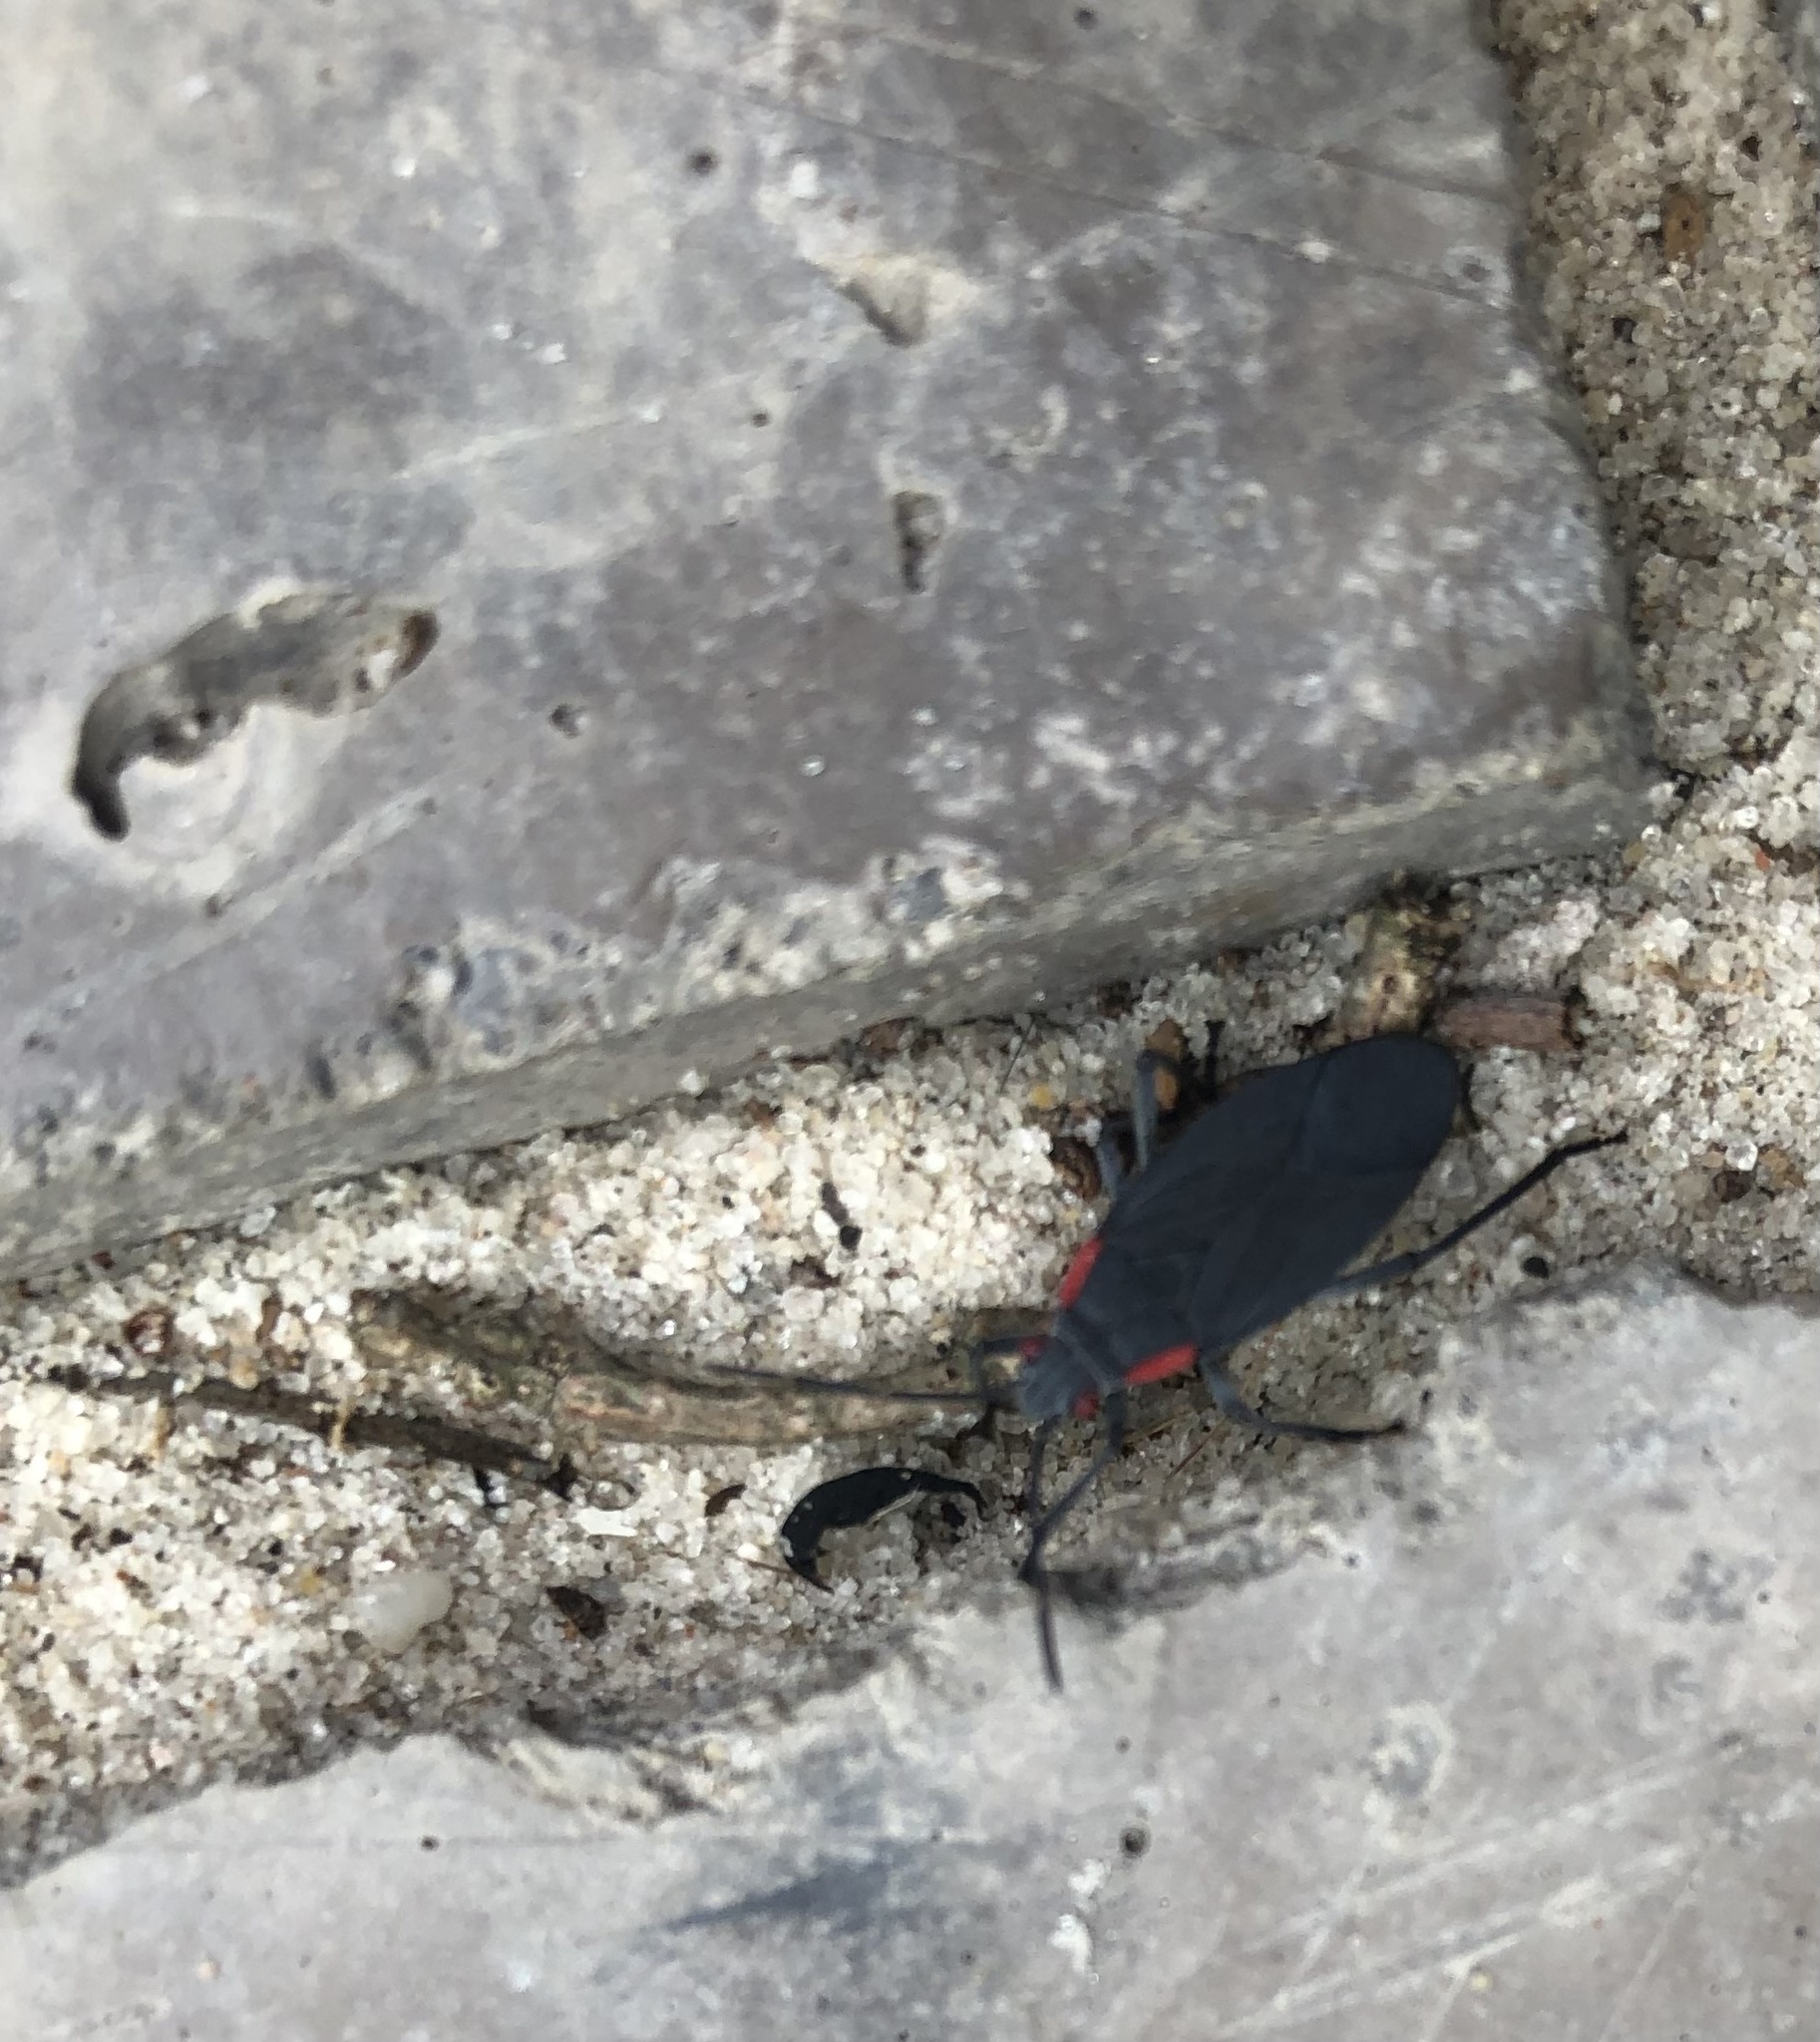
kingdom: Animalia
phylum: Arthropoda
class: Insecta
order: Hemiptera
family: Rhopalidae
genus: Jadera
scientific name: Jadera haematoloma
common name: Red-shouldered bug
